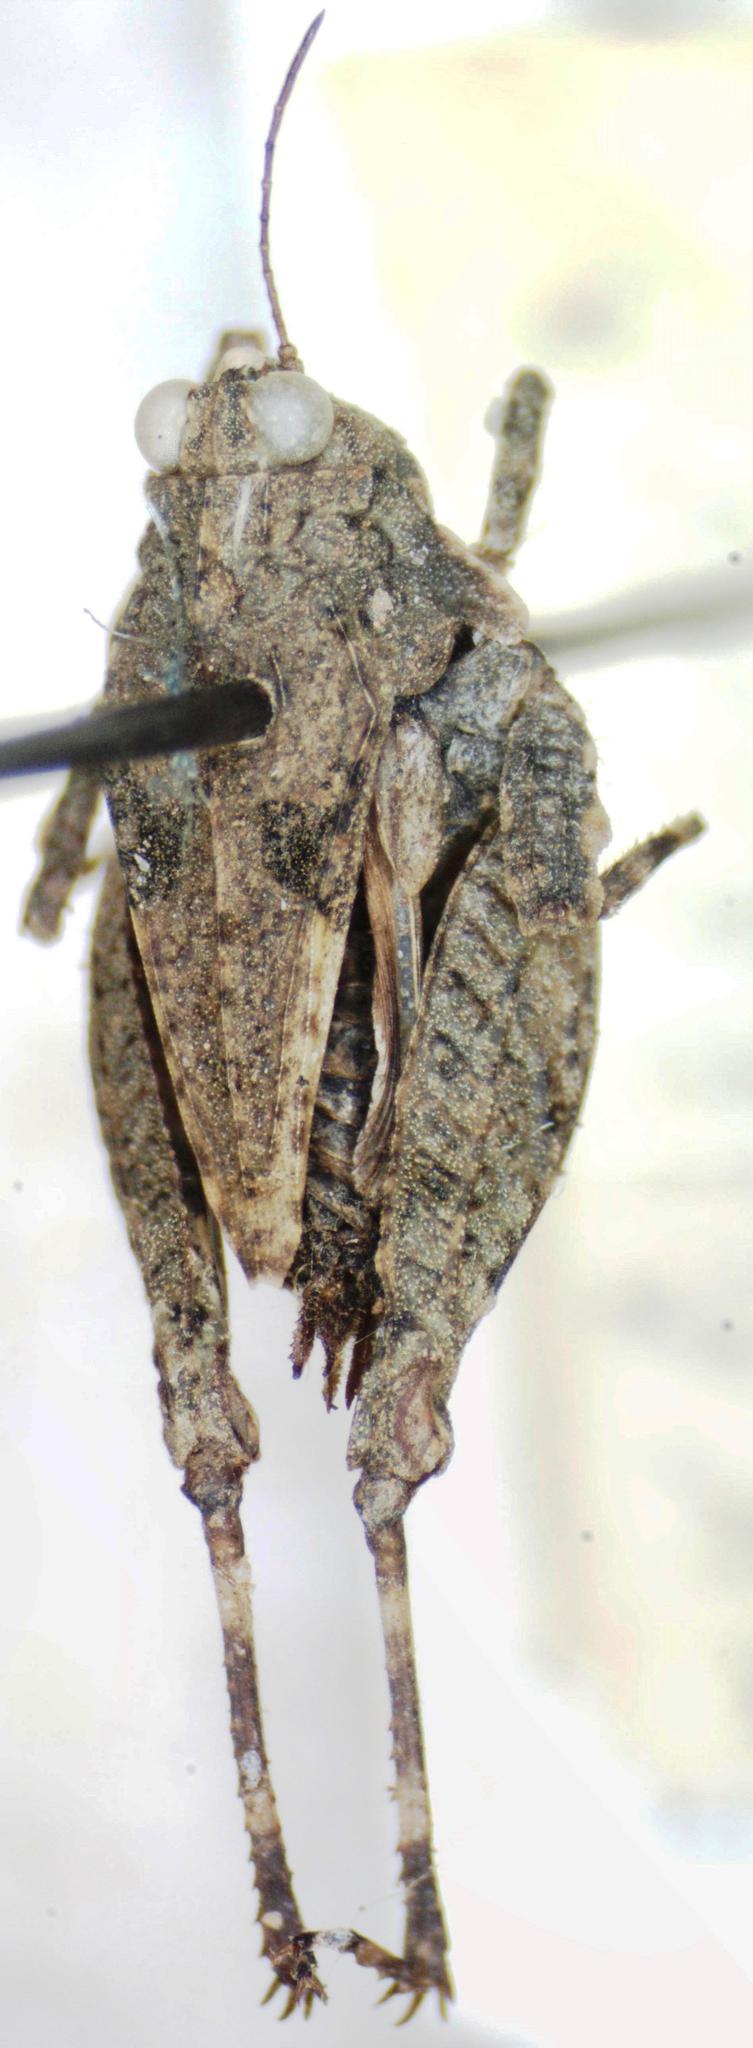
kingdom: Animalia
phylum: Arthropoda
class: Insecta
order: Orthoptera
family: Tetrigidae
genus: Clypeotettix
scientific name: Clypeotettix schochii
